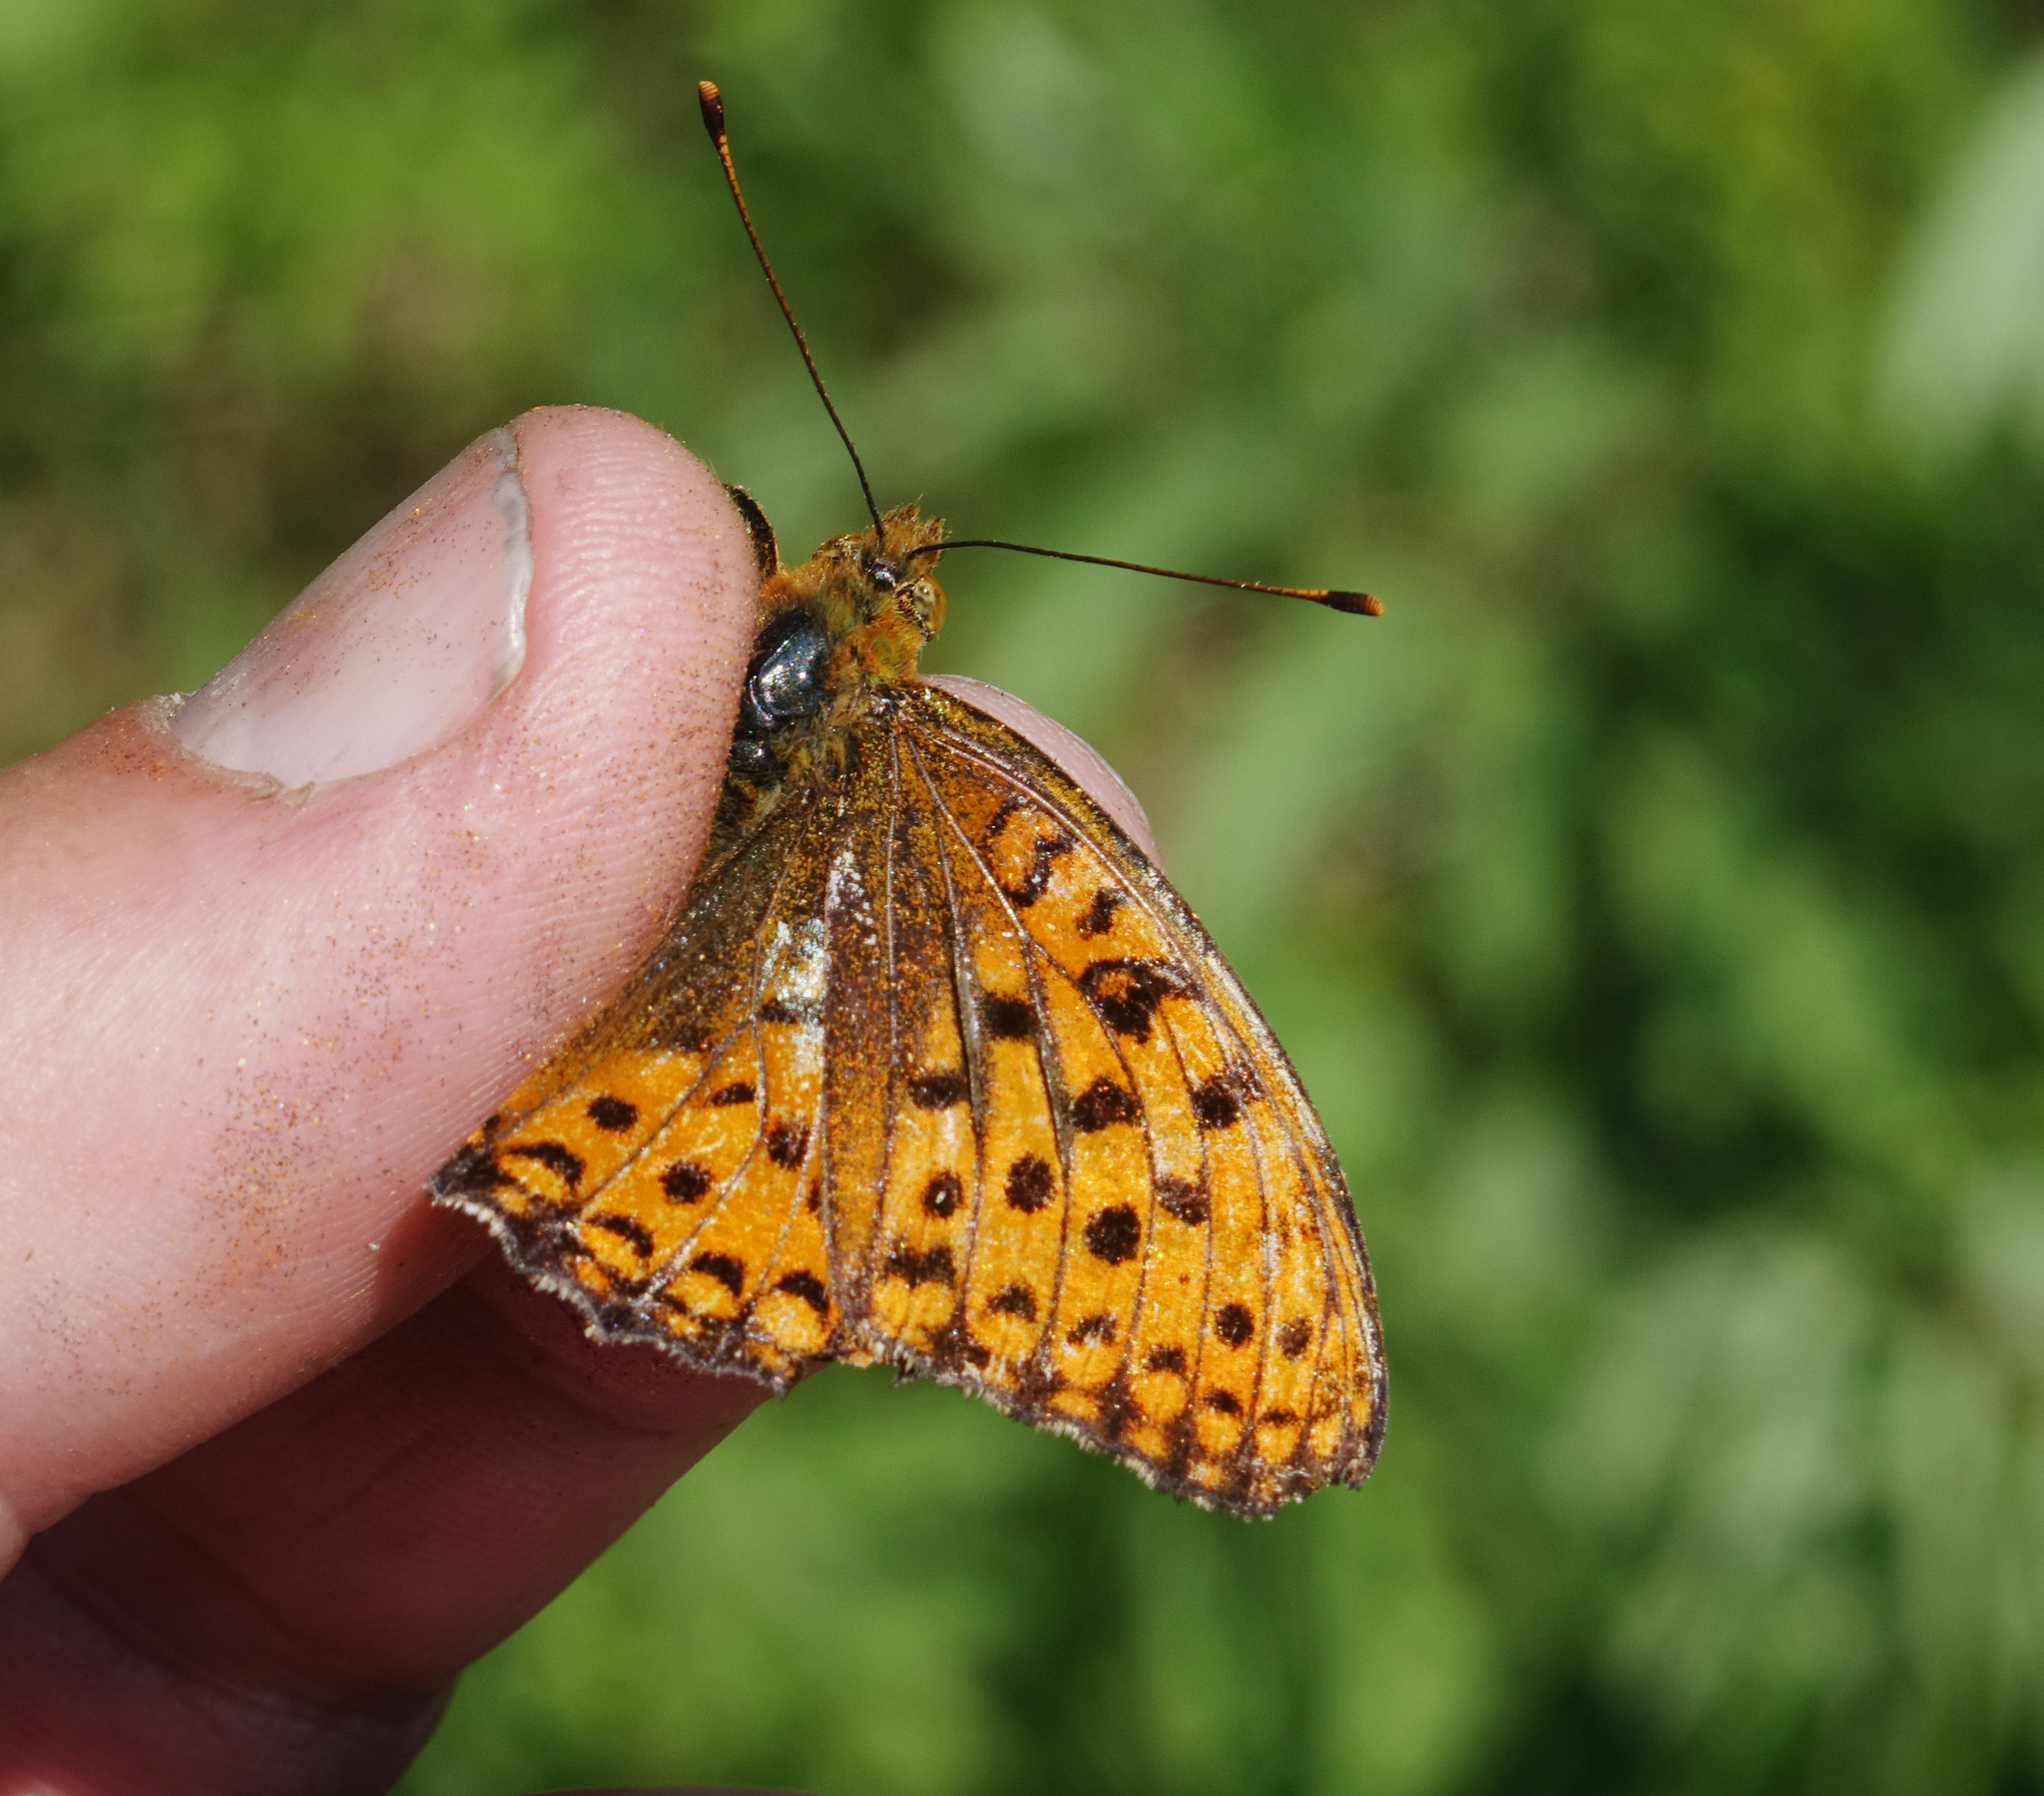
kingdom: Animalia
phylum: Arthropoda
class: Insecta
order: Lepidoptera
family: Nymphalidae
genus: Fabriciana
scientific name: Fabriciana adippe
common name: High brown fritillary
